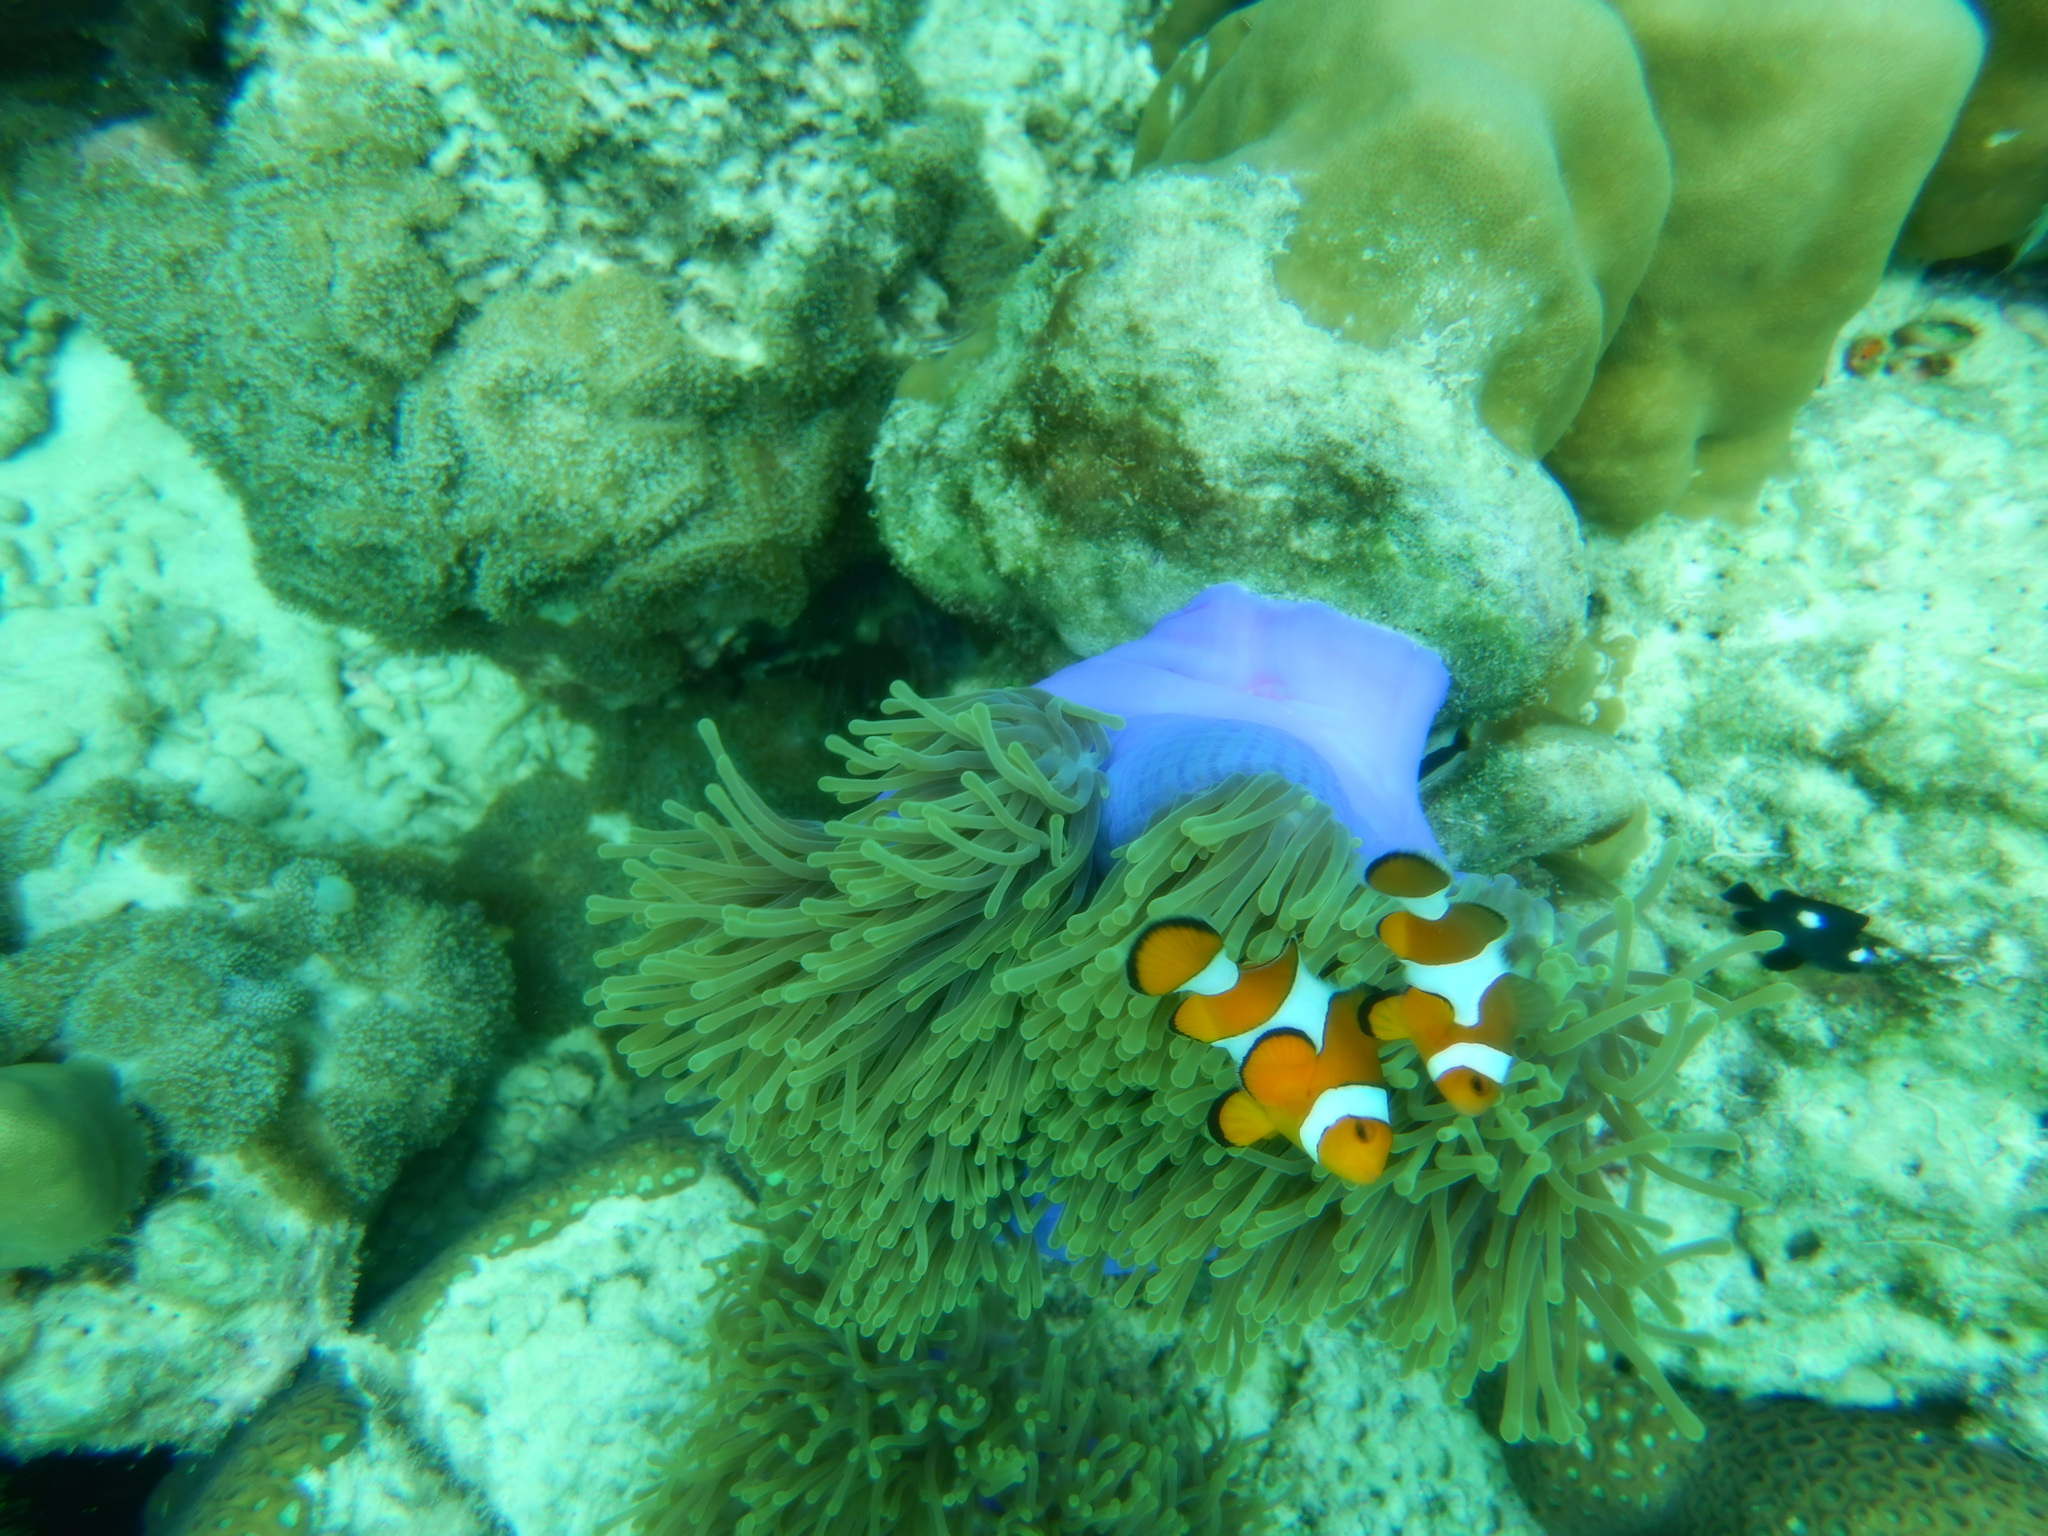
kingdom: Animalia
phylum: Chordata
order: Perciformes
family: Pomacentridae
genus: Amphiprion
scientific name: Amphiprion ocellaris
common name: Clown anemonefish
